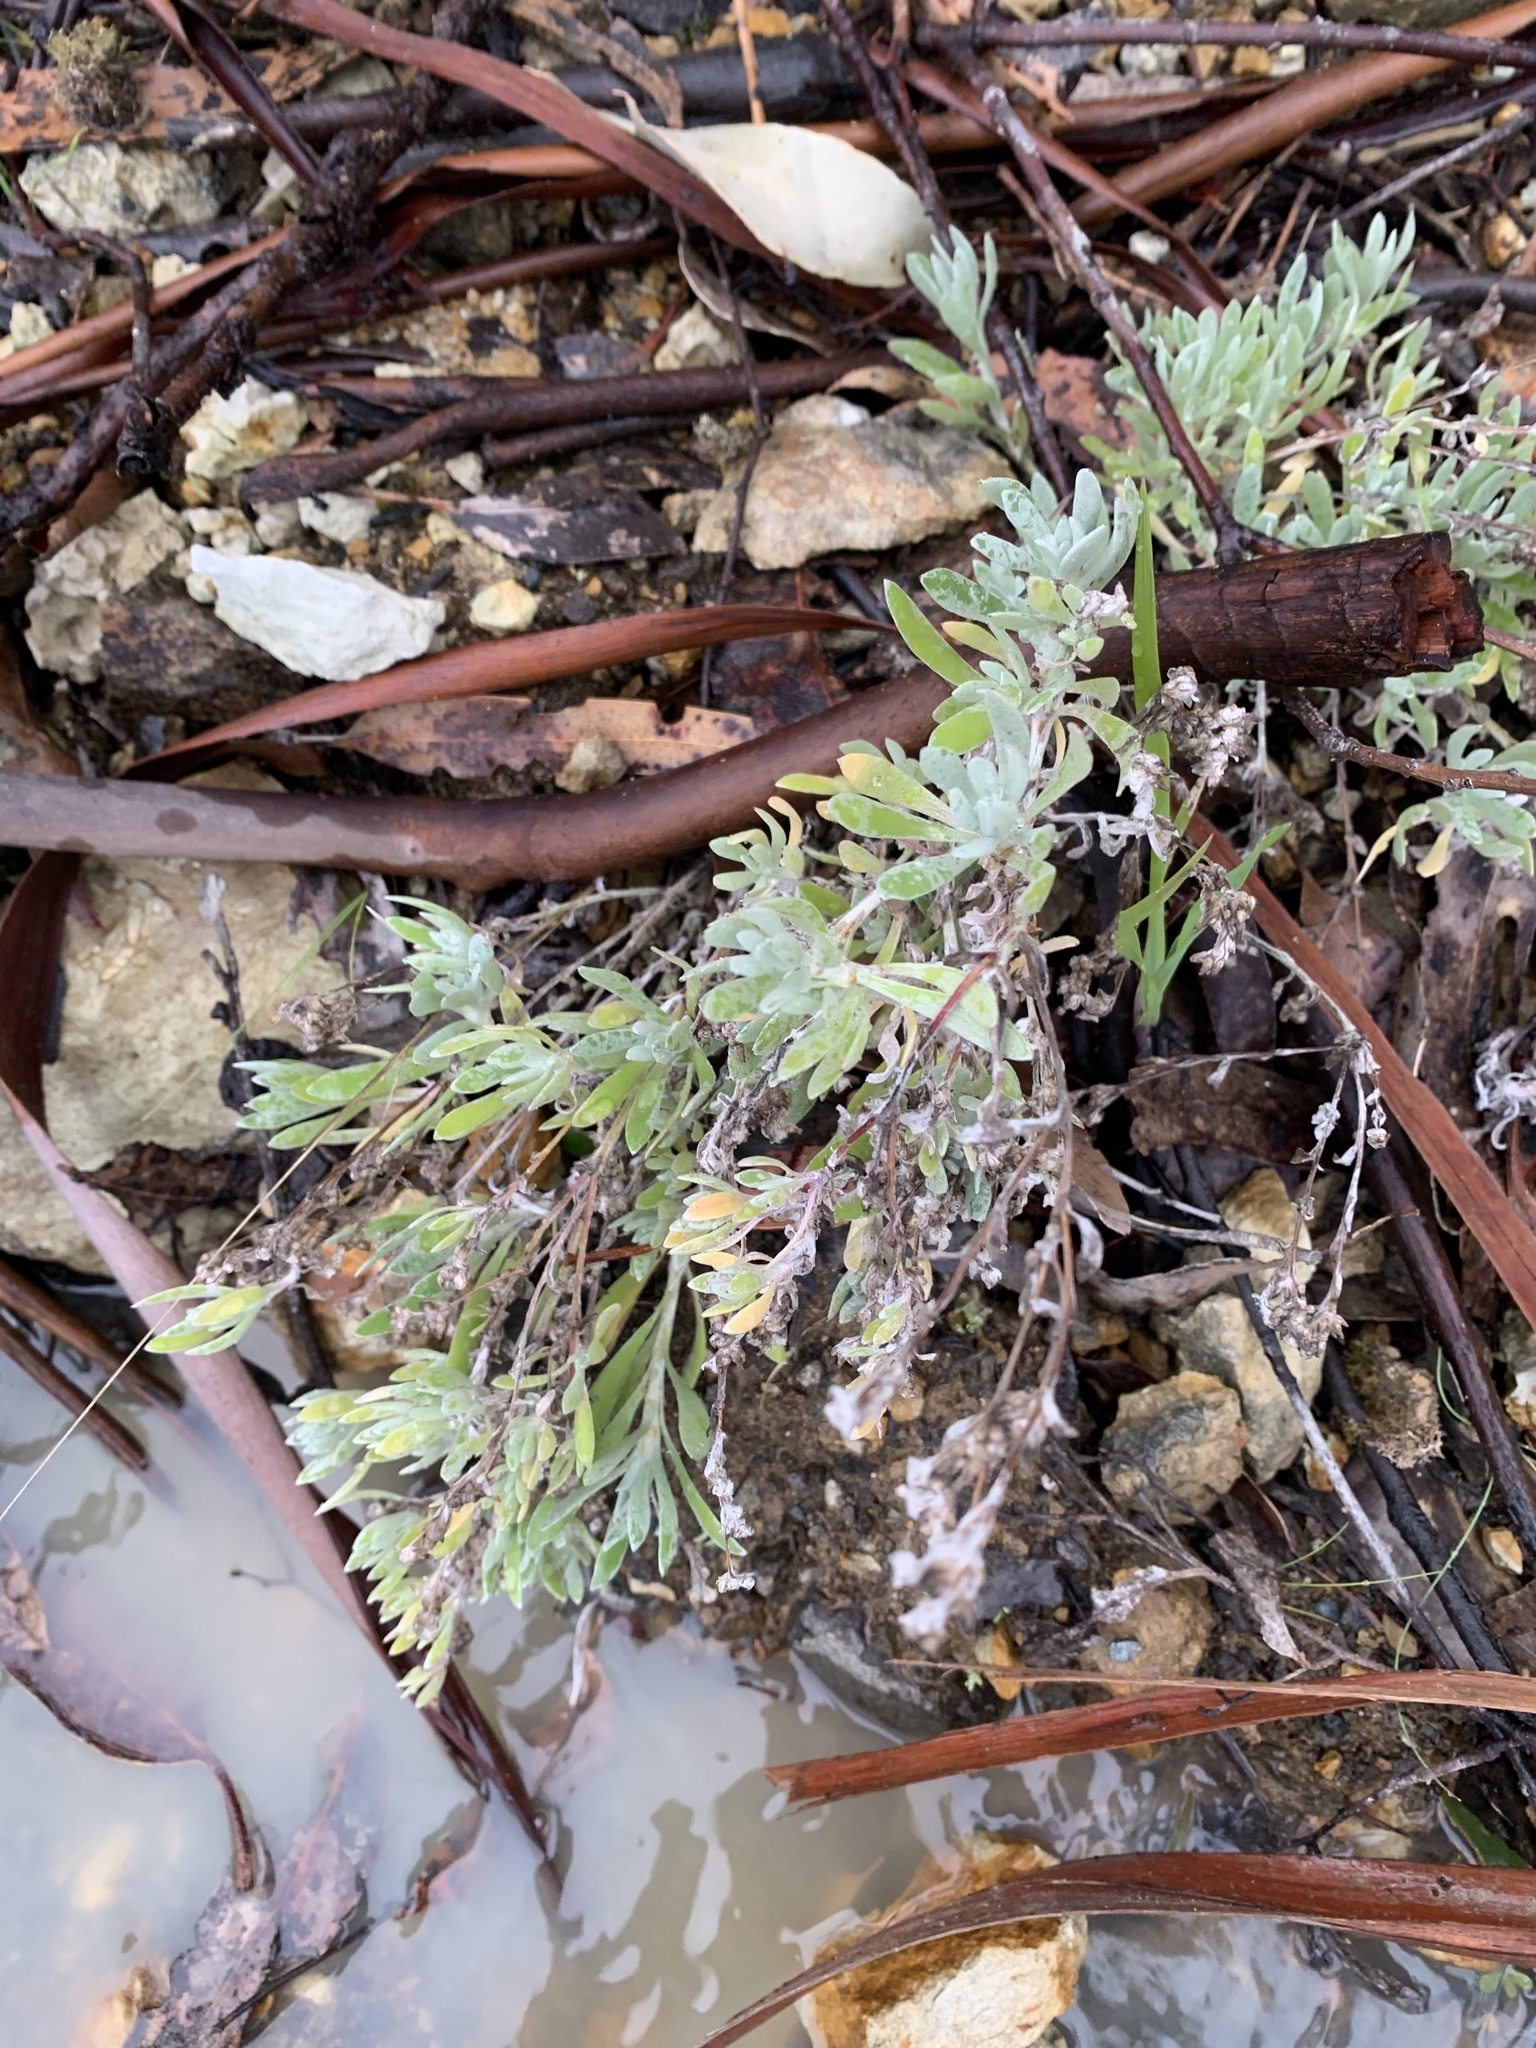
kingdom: Plantae
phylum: Tracheophyta
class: Magnoliopsida
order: Asterales
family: Asteraceae
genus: Vellereophyton
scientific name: Vellereophyton dealbatum
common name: White-cudweed
